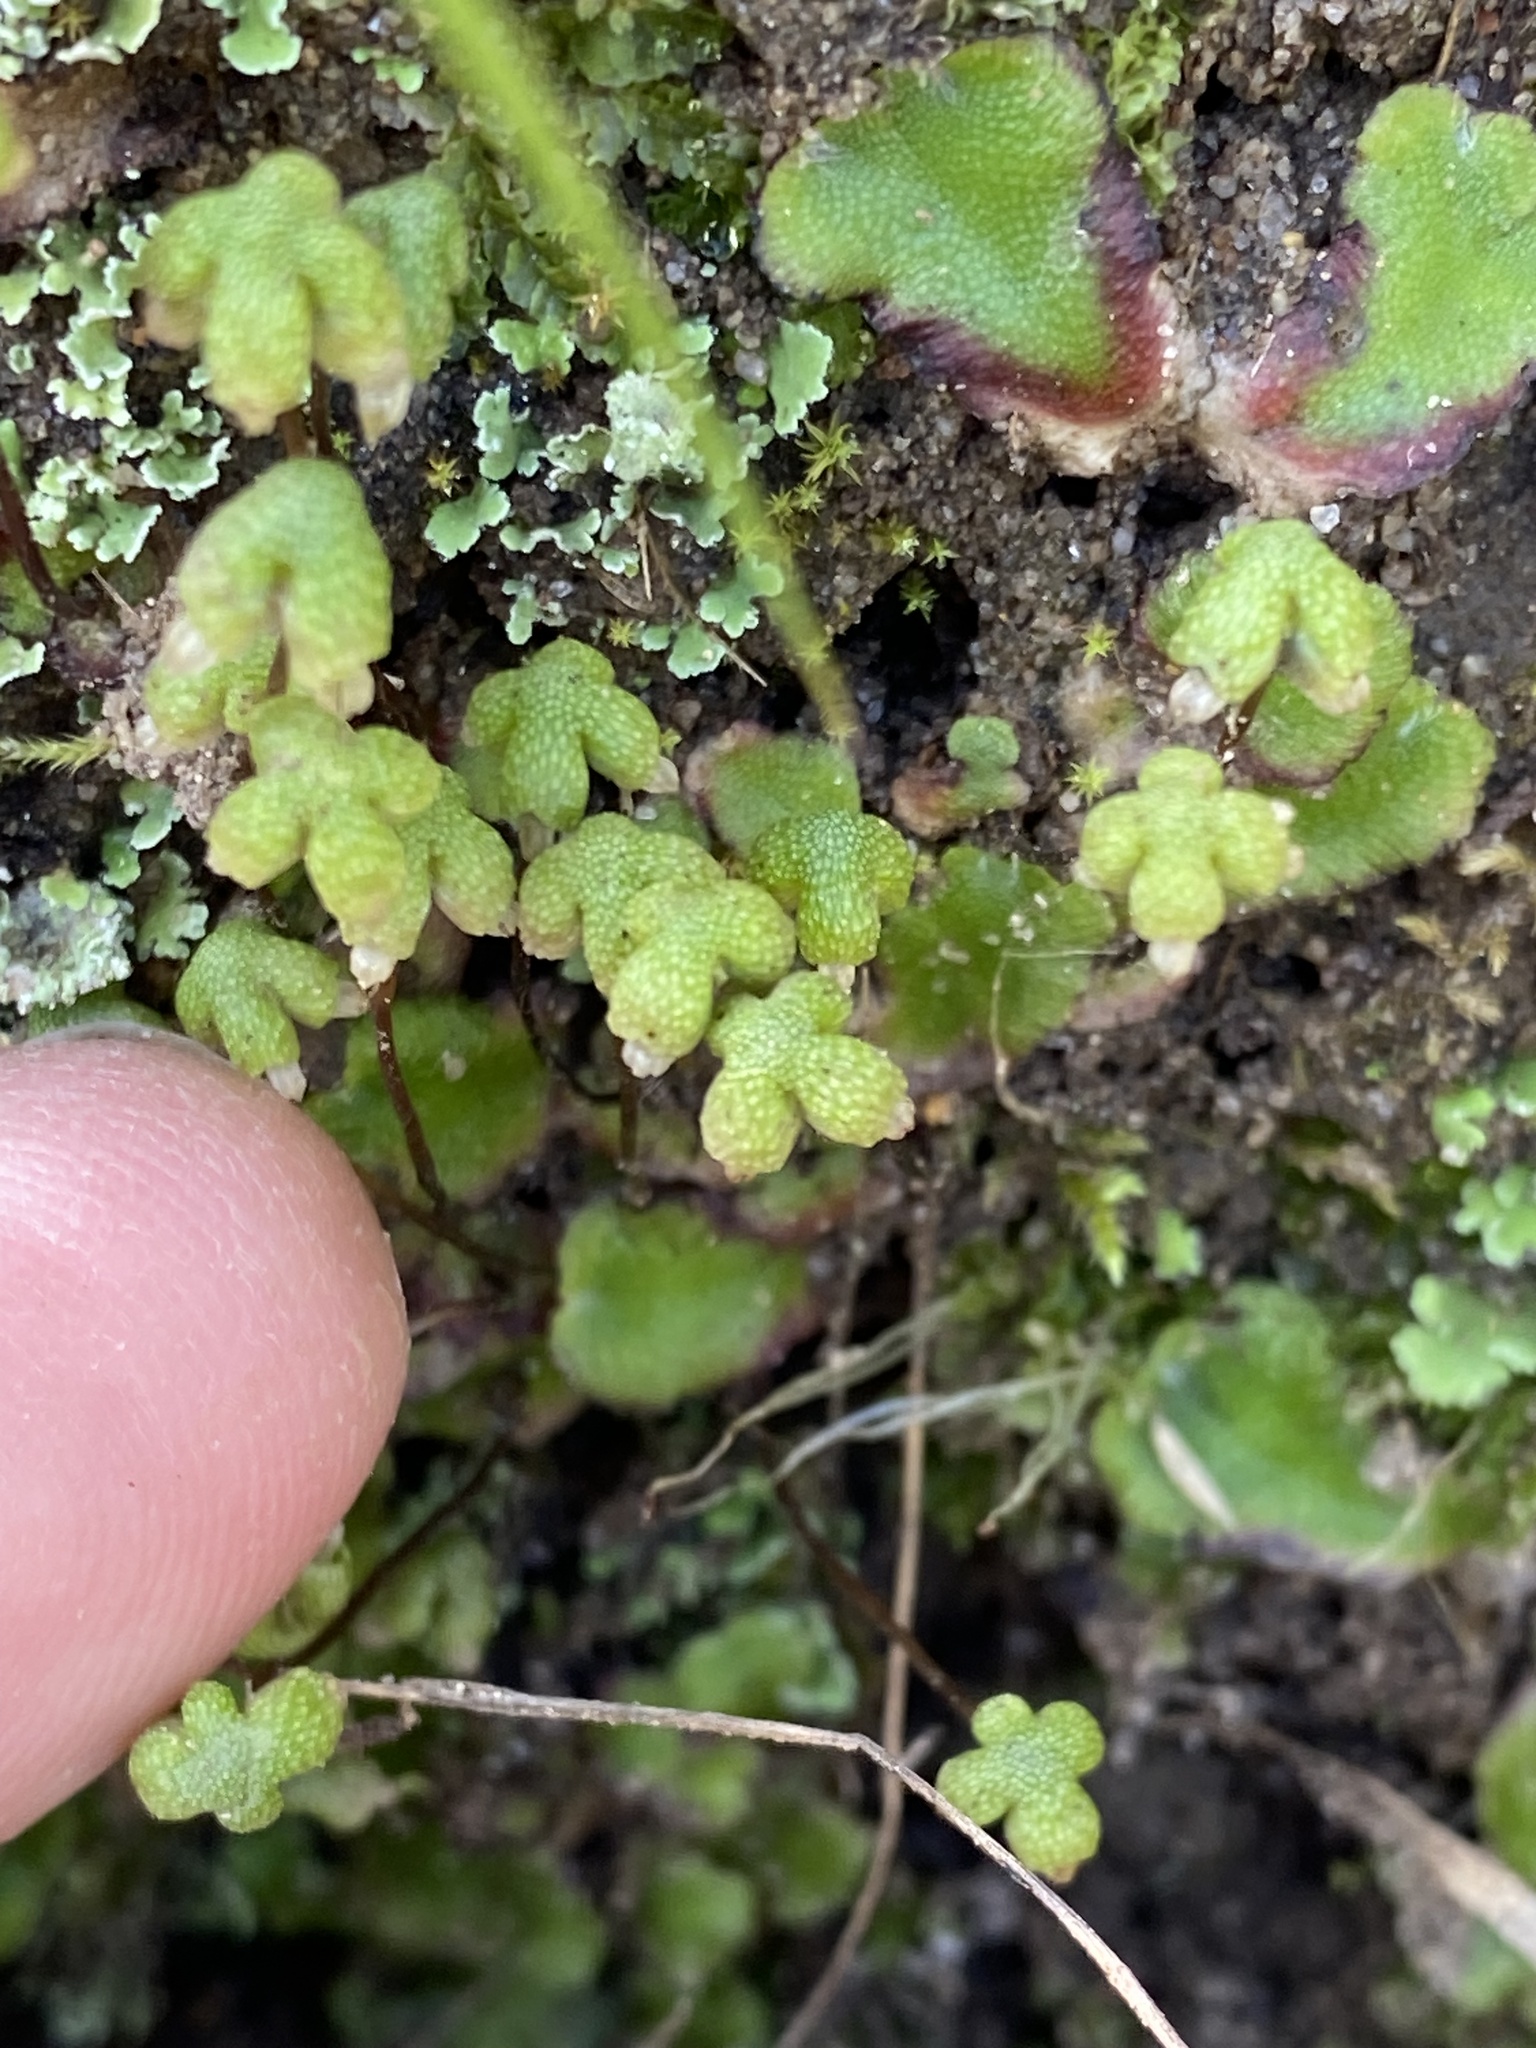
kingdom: Plantae
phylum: Marchantiophyta
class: Marchantiopsida
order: Marchantiales
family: Aytoniaceae
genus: Asterella
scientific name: Asterella californica
